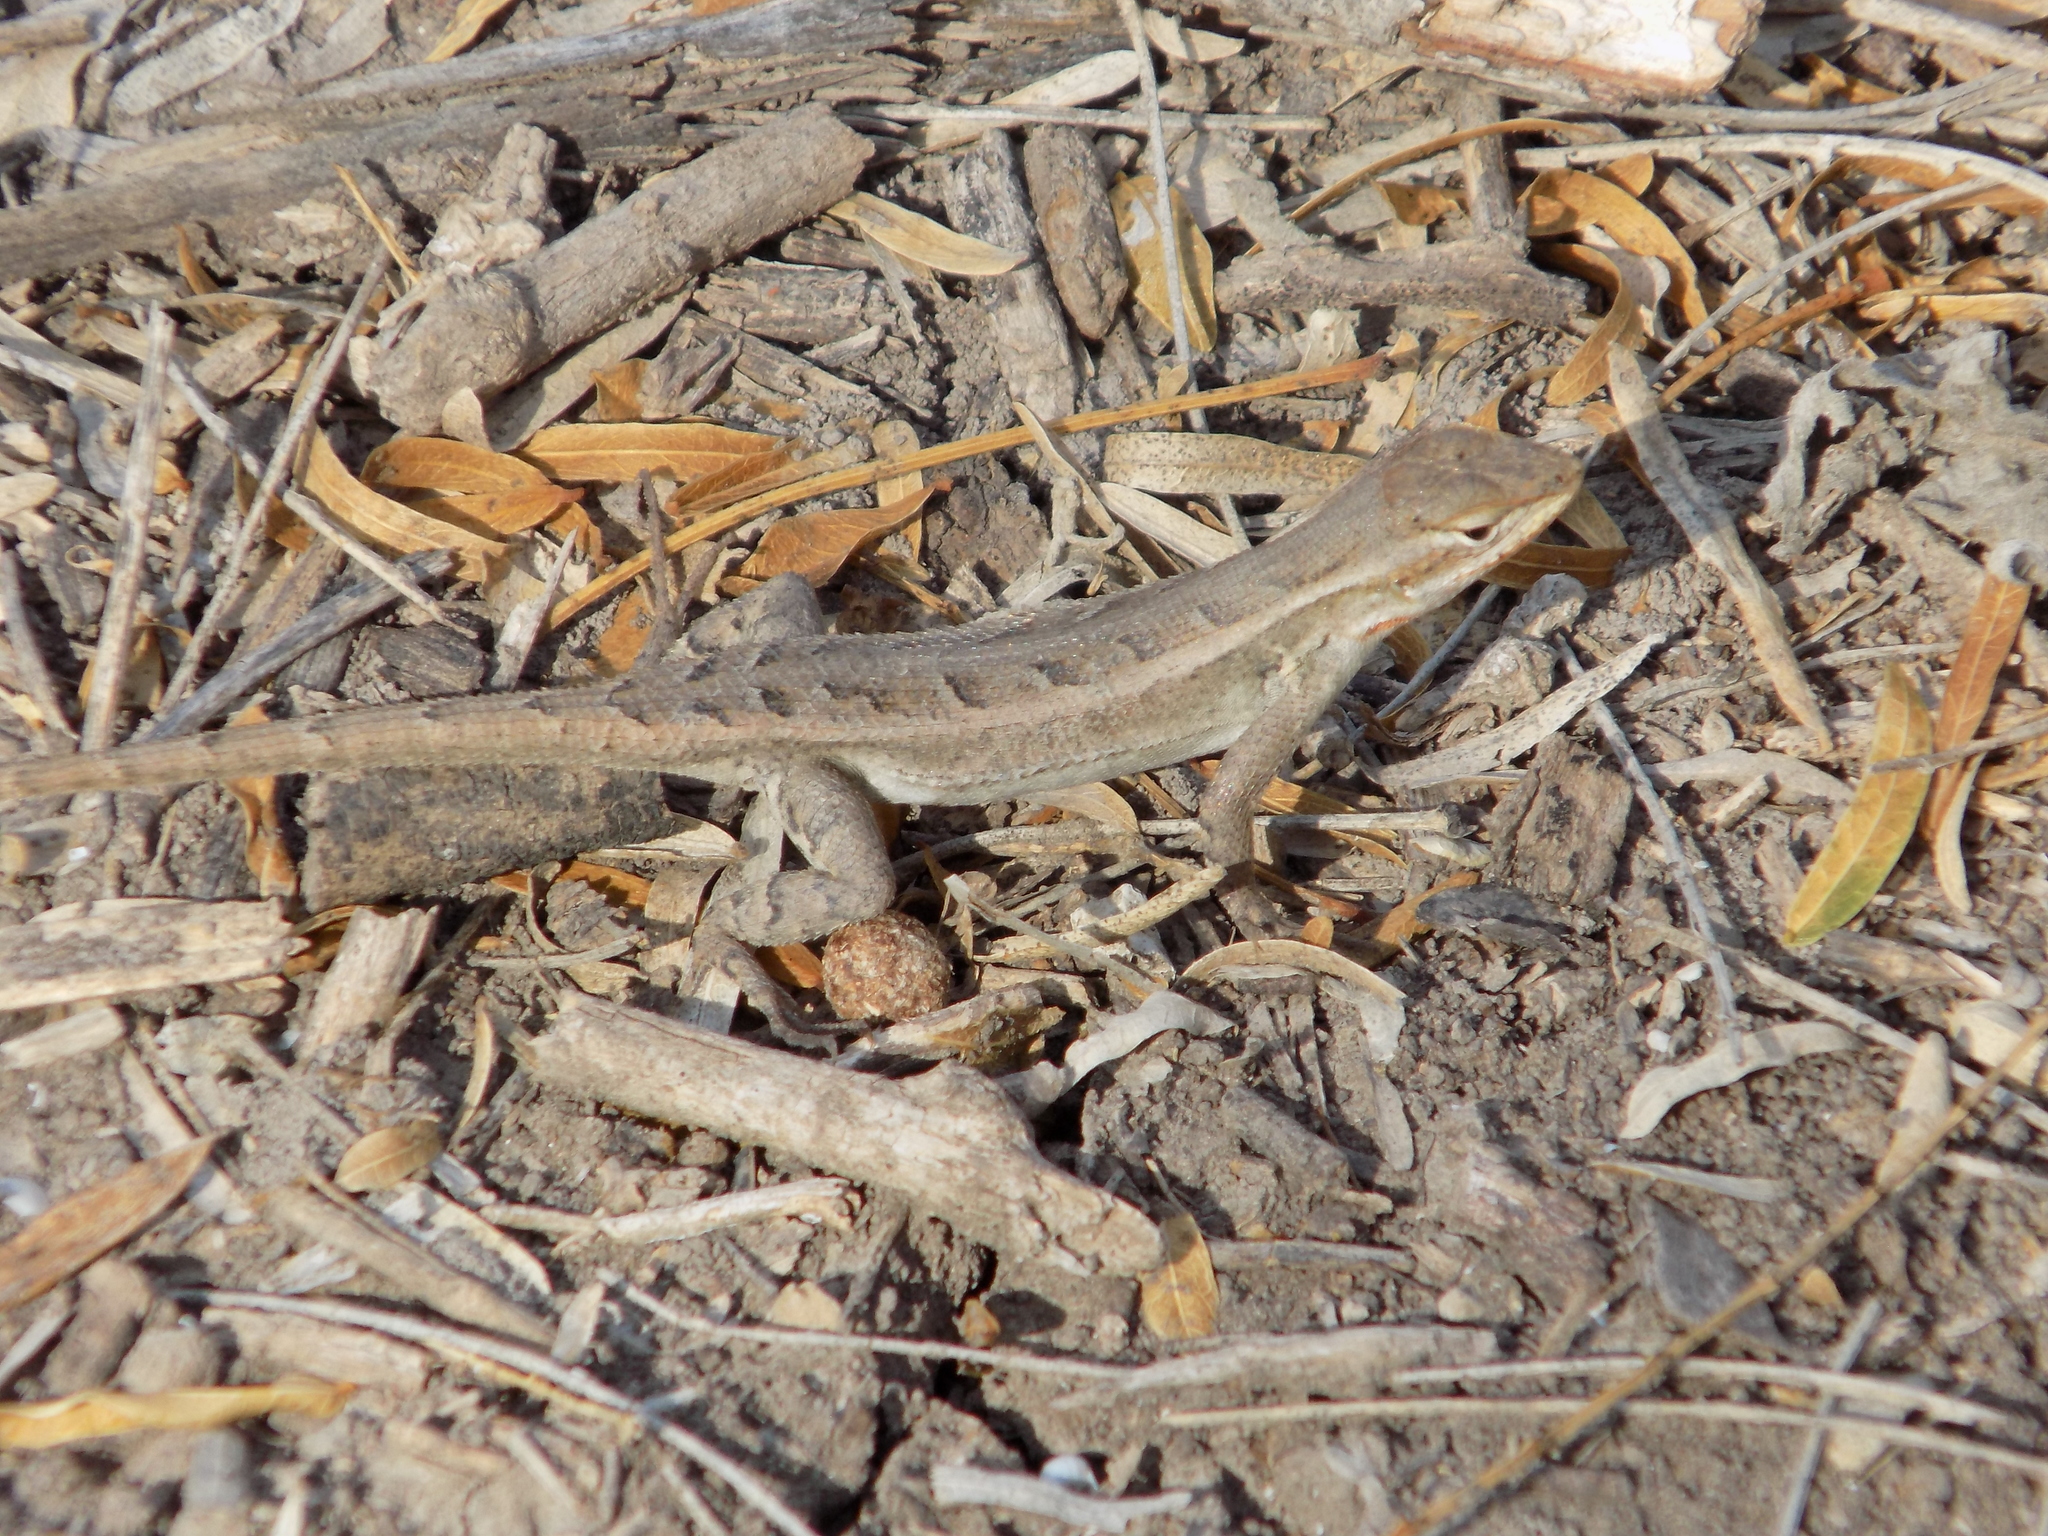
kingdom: Animalia
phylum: Chordata
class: Squamata
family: Phrynosomatidae
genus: Sceloporus
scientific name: Sceloporus variabilis
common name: Rosebelly lizard
